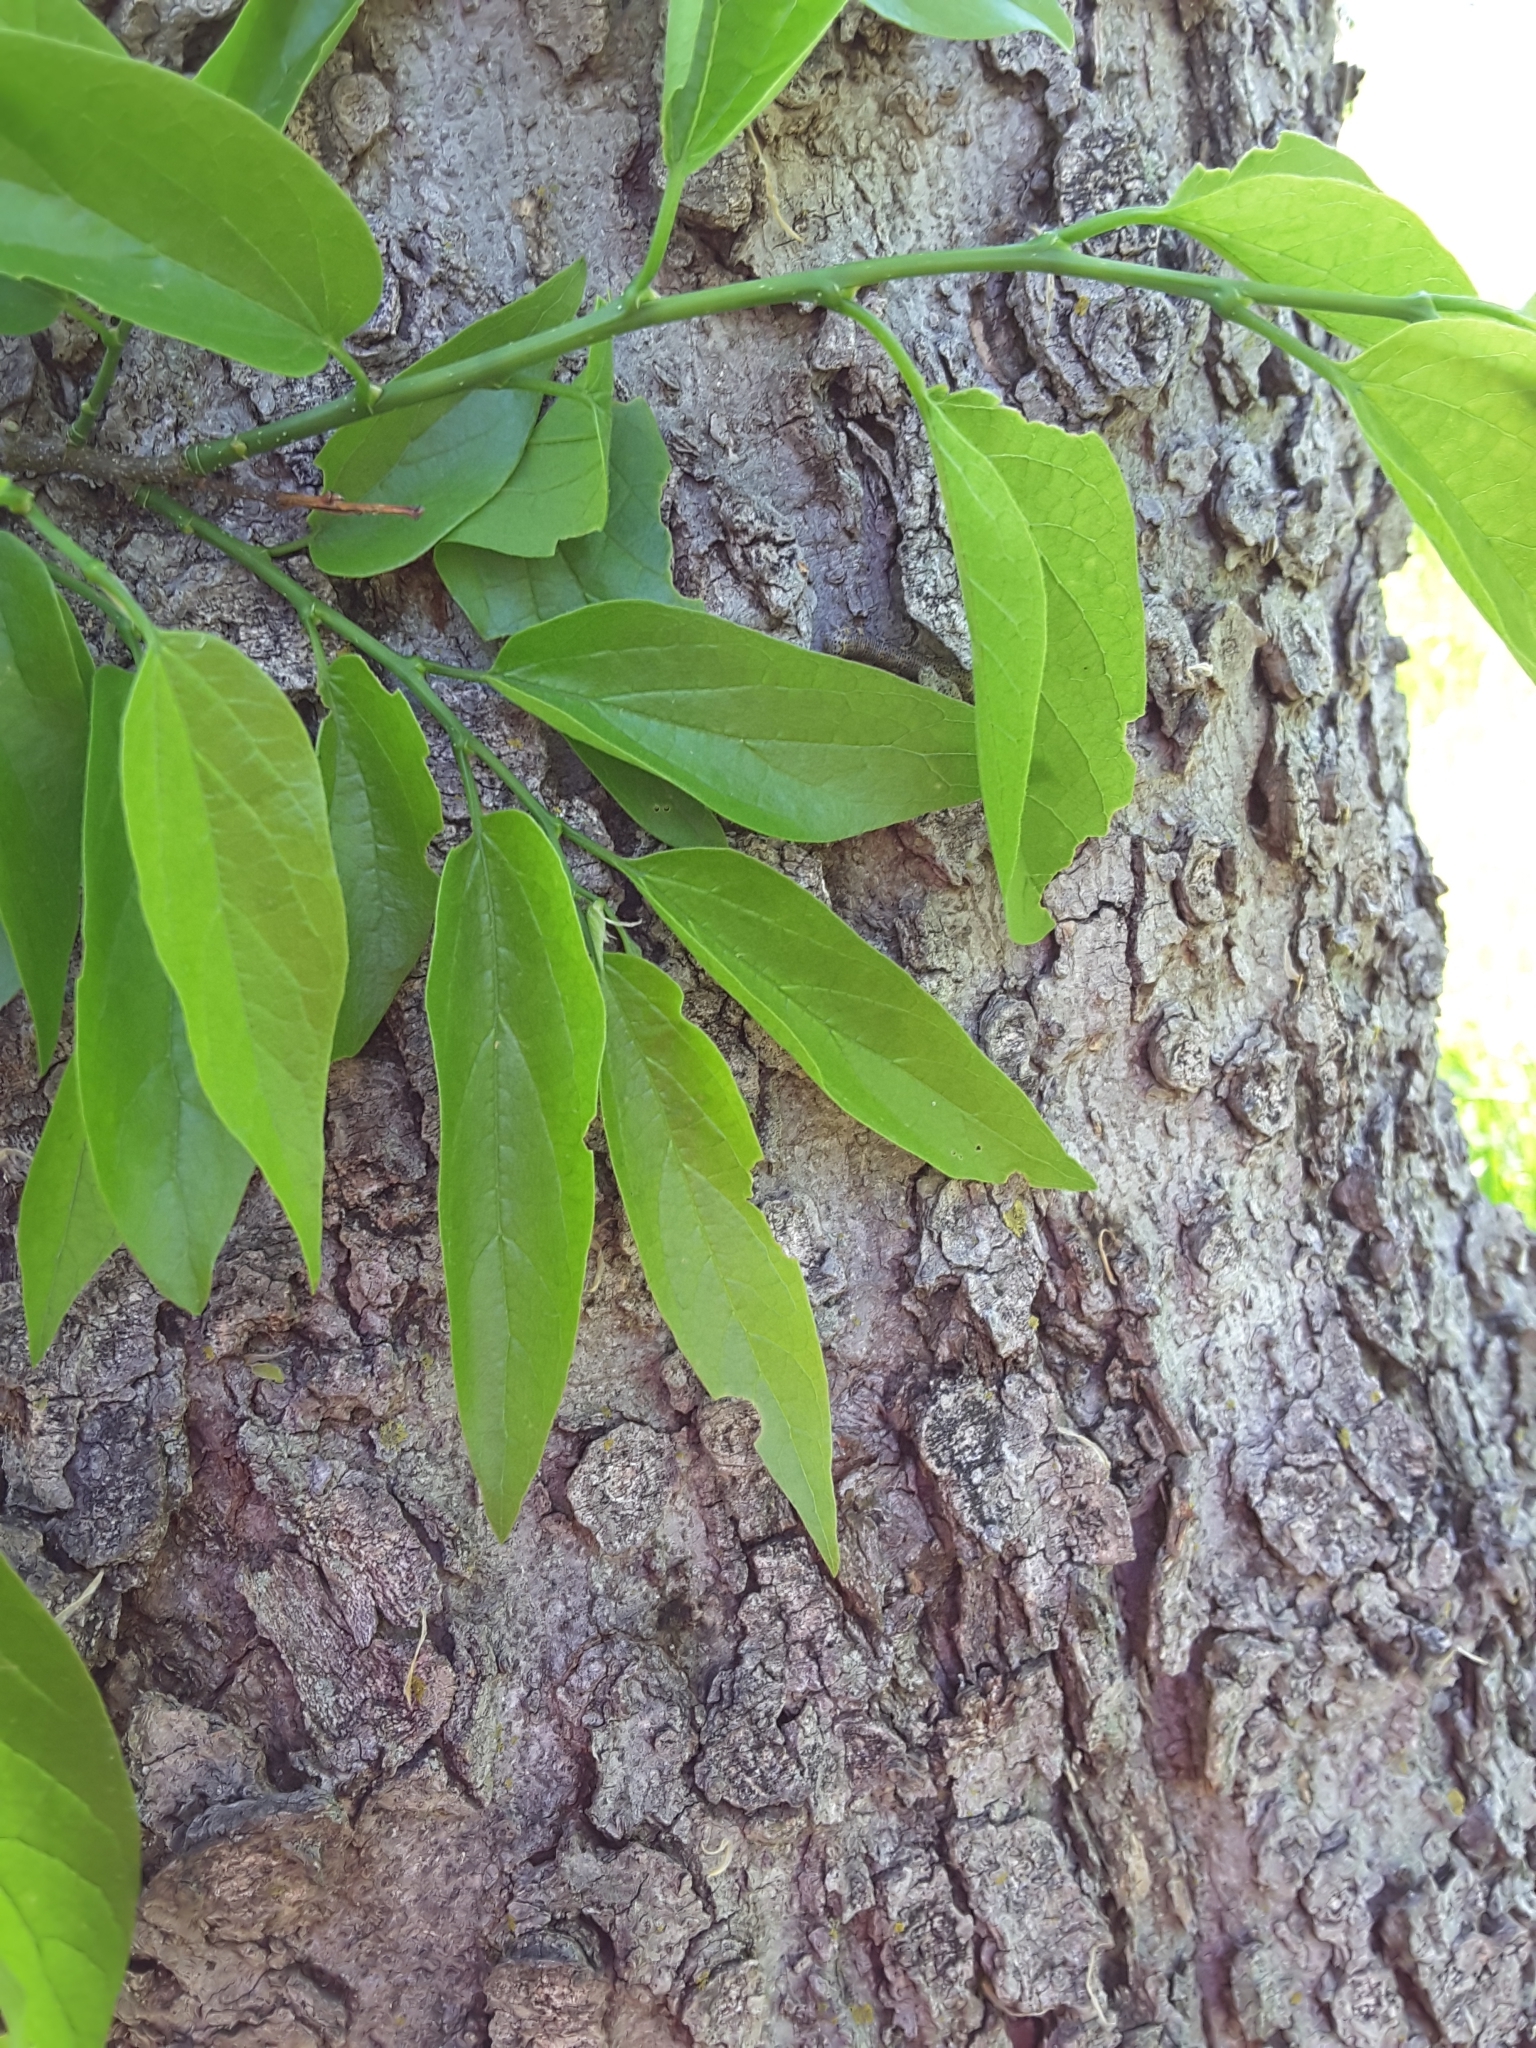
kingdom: Plantae
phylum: Tracheophyta
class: Magnoliopsida
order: Rosales
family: Cannabaceae
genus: Celtis
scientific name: Celtis laevigata
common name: Sugarberry
